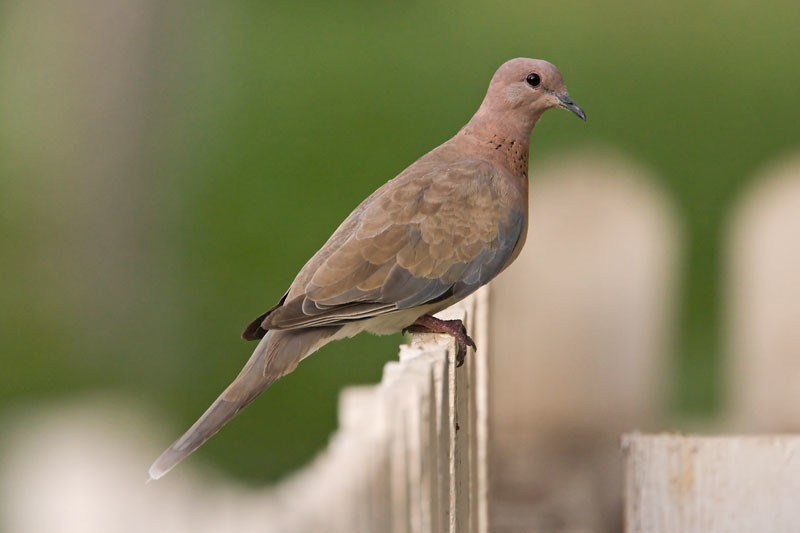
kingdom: Animalia
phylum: Chordata
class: Aves
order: Columbiformes
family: Columbidae
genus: Spilopelia
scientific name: Spilopelia senegalensis
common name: Laughing dove
